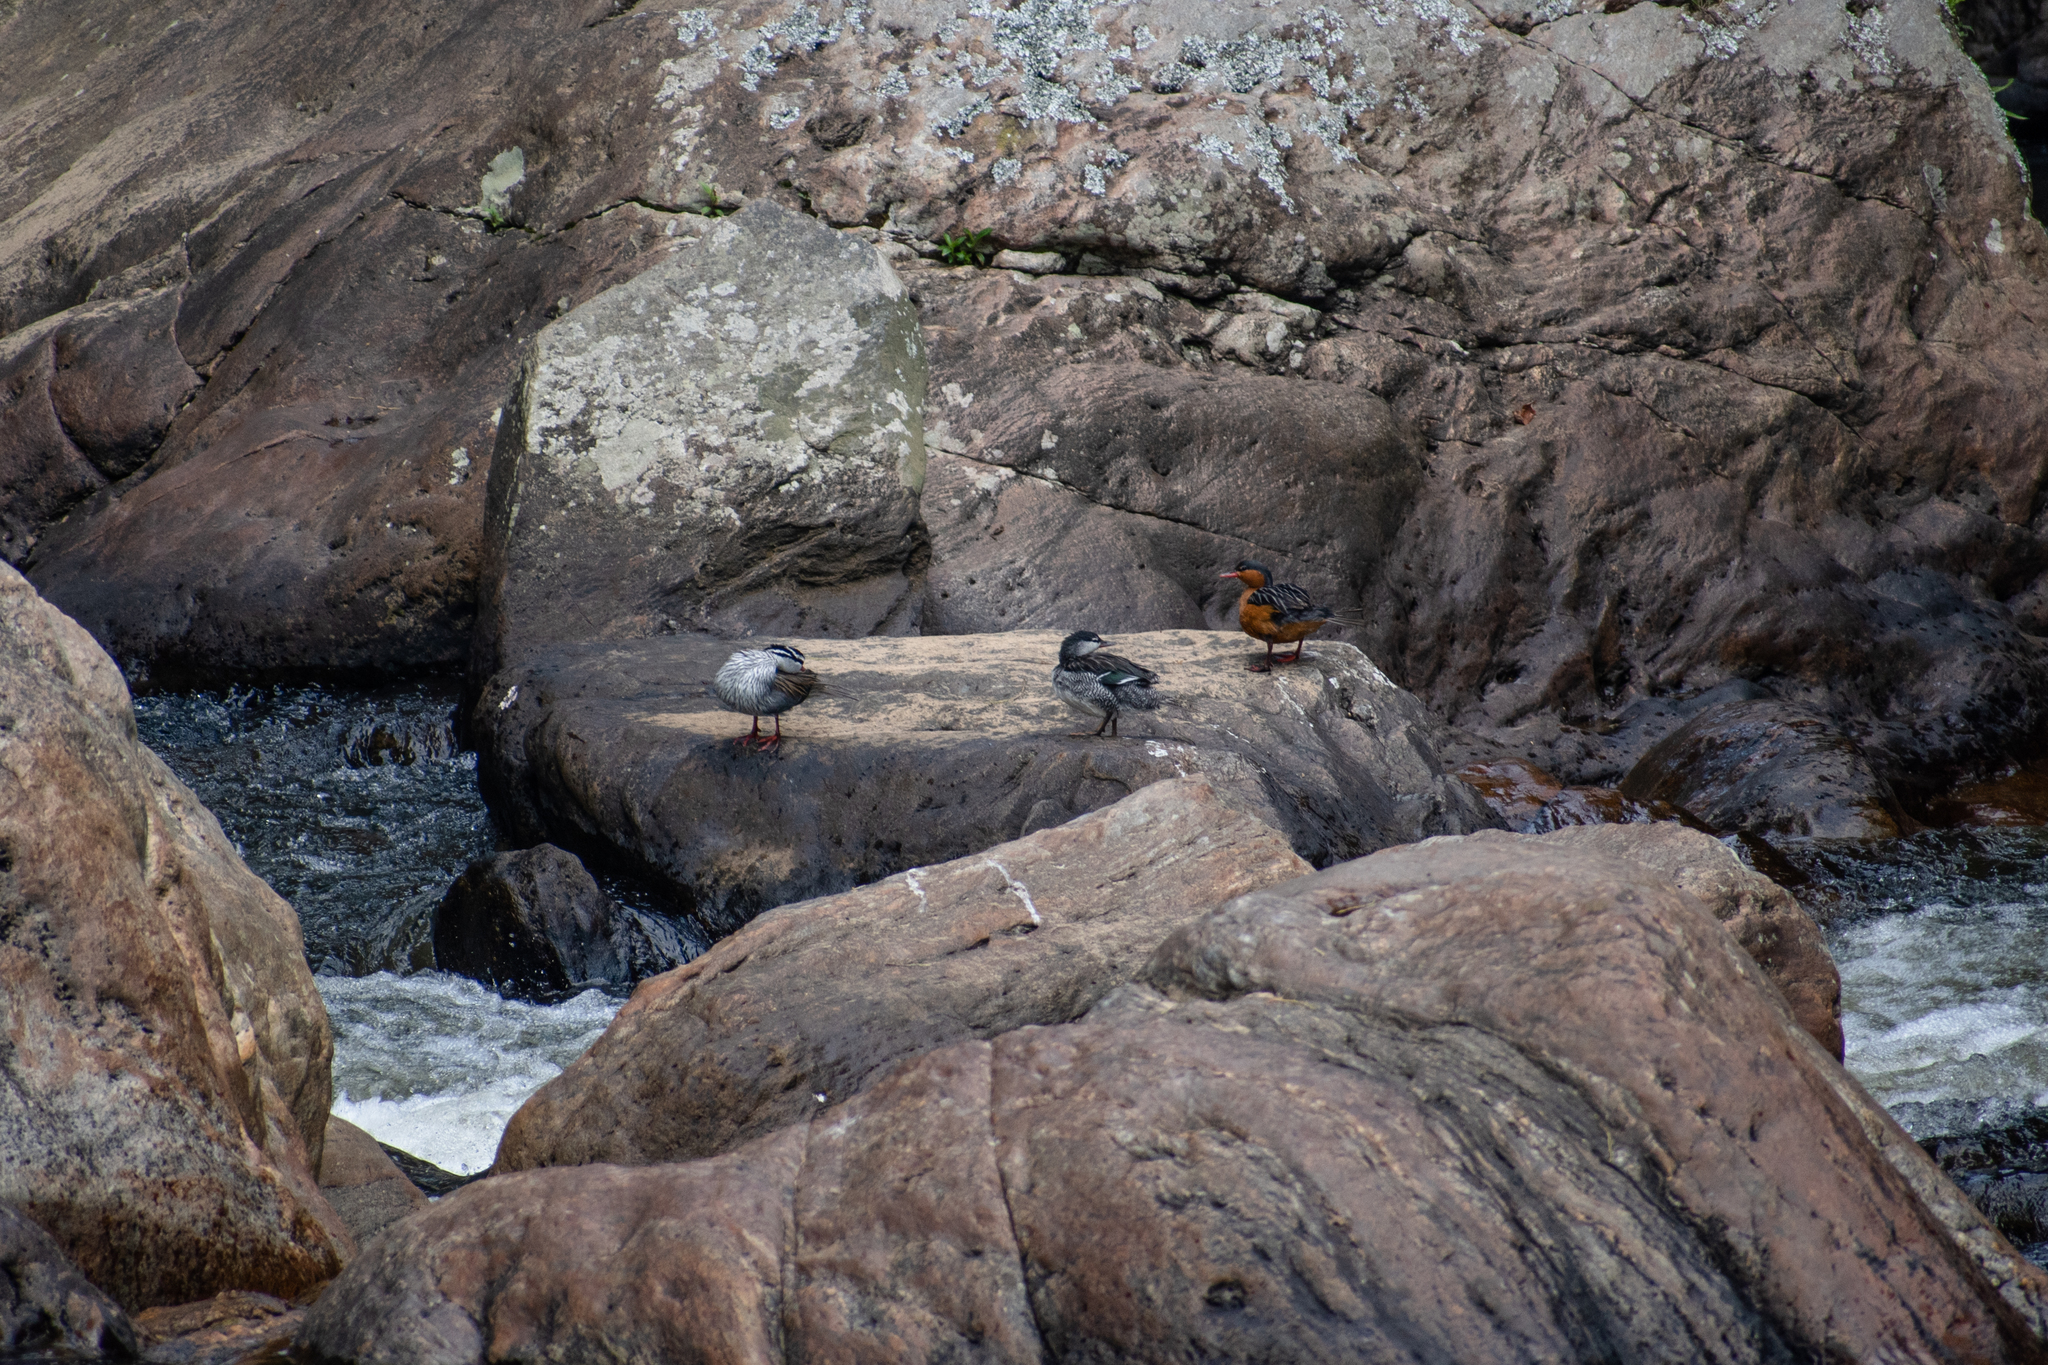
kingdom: Animalia
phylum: Chordata
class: Aves
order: Anseriformes
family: Anatidae
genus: Merganetta
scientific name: Merganetta armata
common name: Torrent duck
